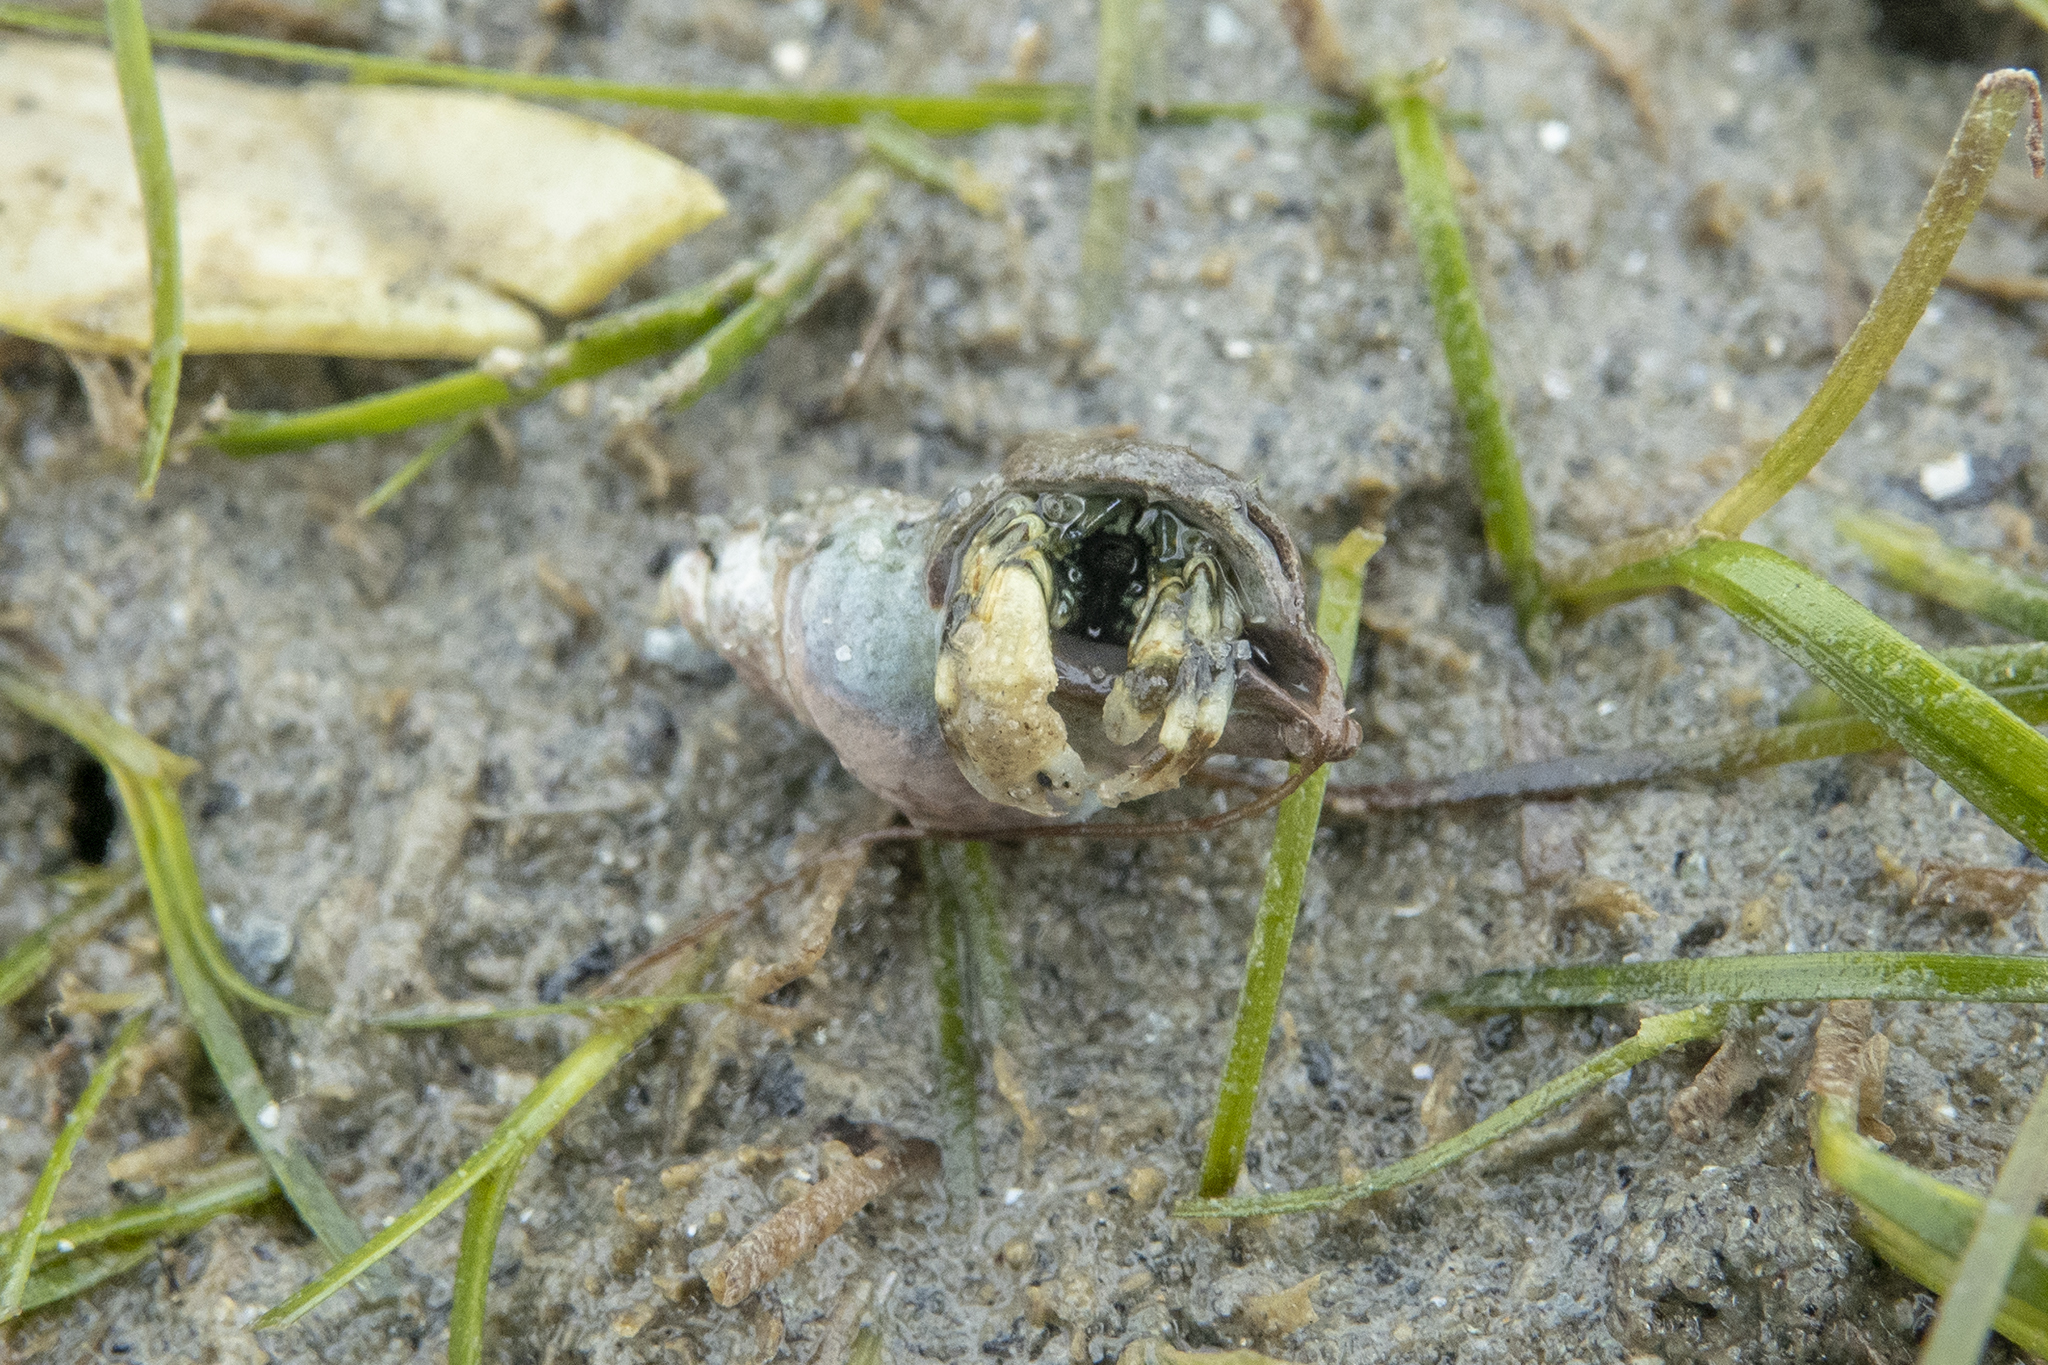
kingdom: Animalia
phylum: Arthropoda
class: Malacostraca
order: Decapoda
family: Paguridae
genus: Pagurus
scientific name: Pagurus novizealandiae
